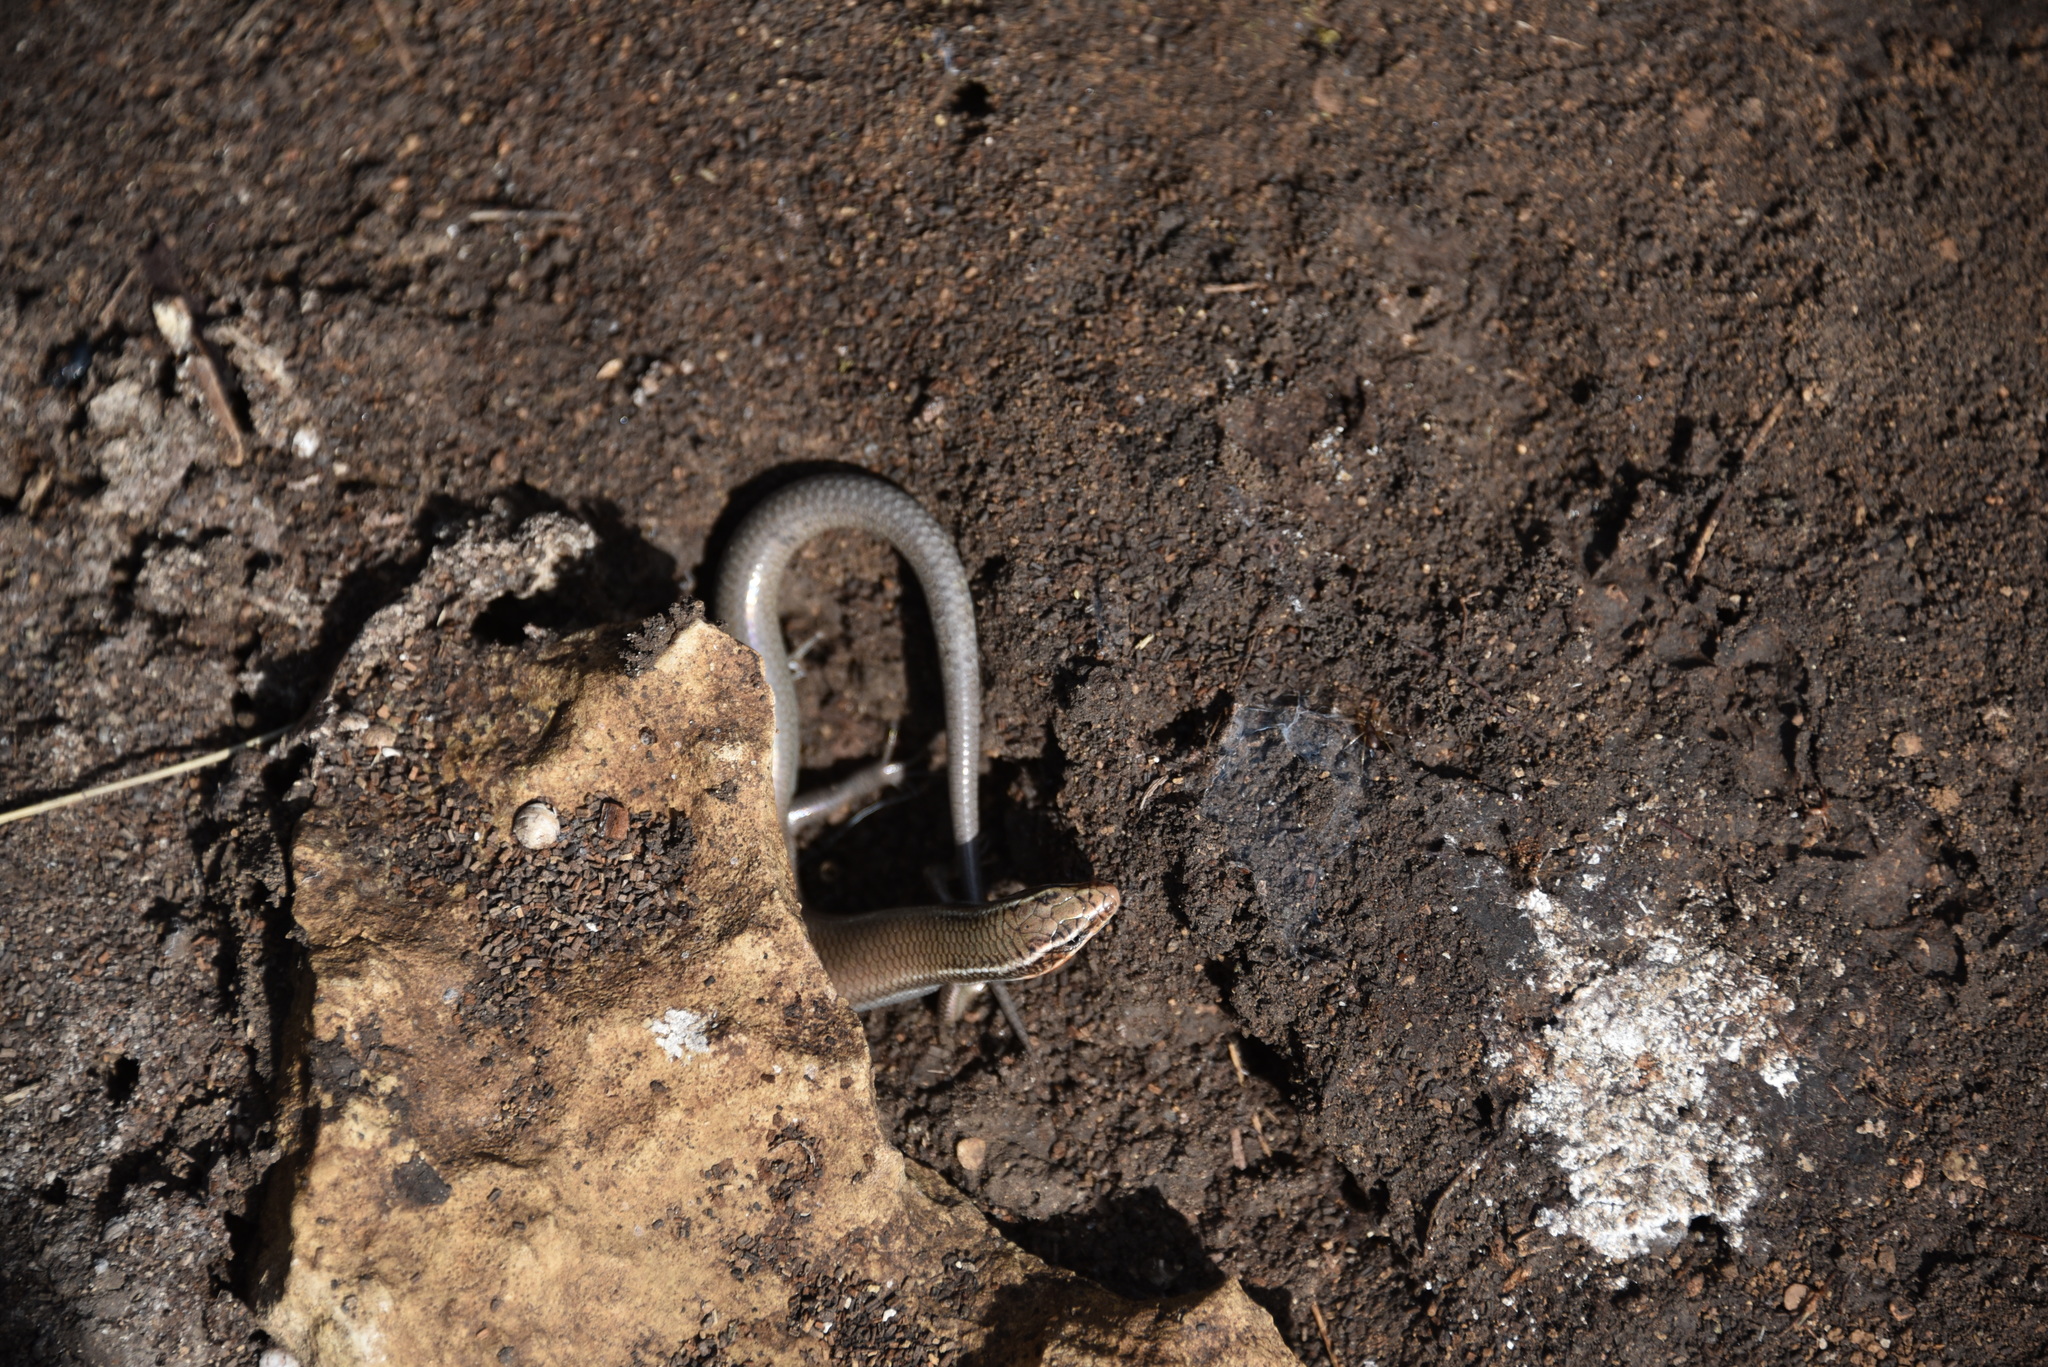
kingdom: Animalia
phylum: Chordata
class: Squamata
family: Scincidae
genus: Plestiodon
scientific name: Plestiodon tetragrammus
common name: Four-lined skink
